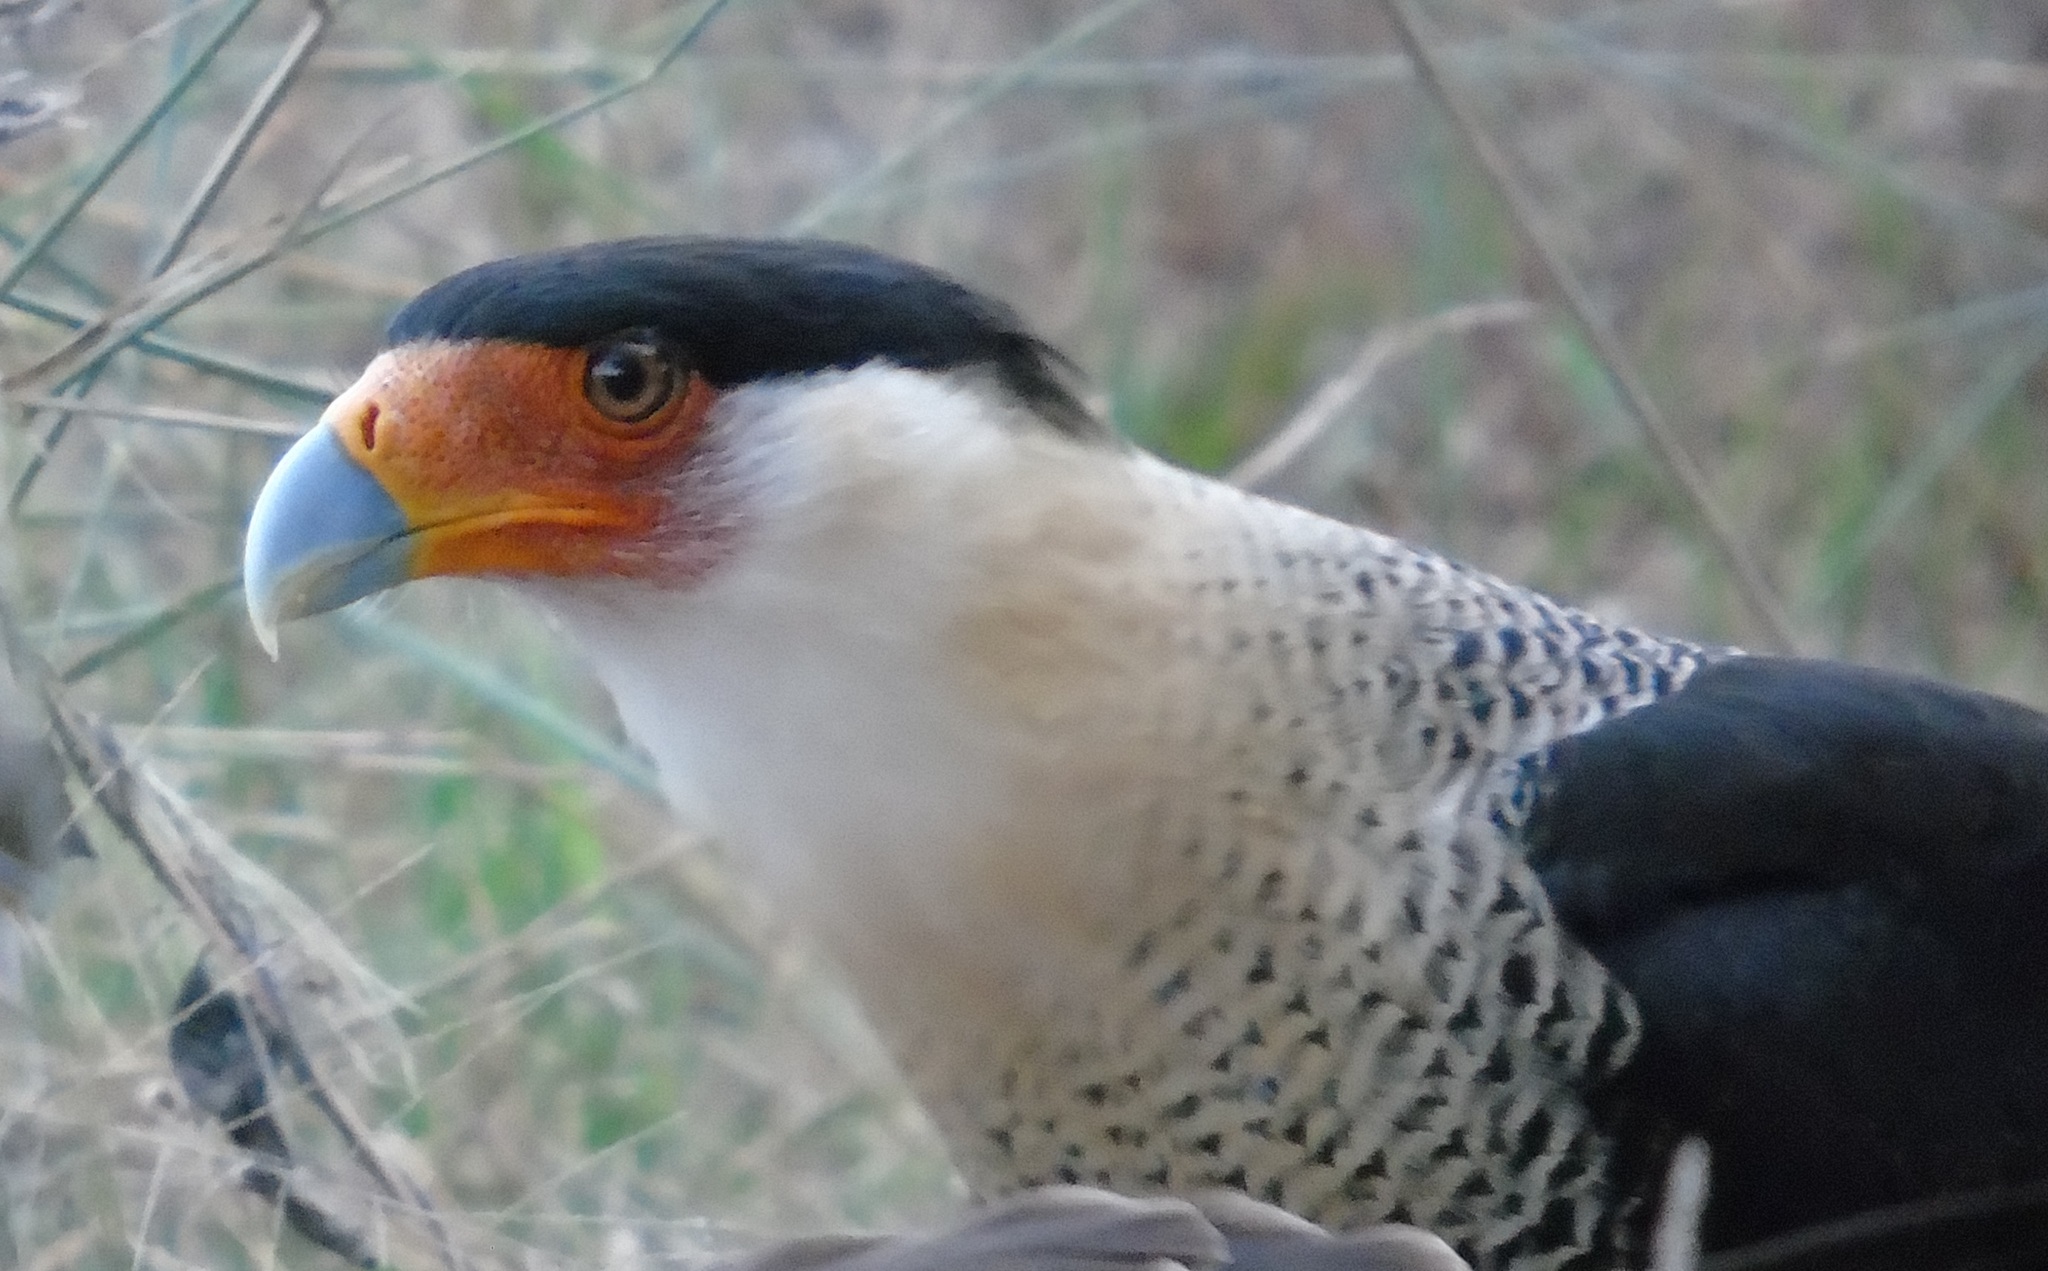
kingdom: Animalia
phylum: Chordata
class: Aves
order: Falconiformes
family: Falconidae
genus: Caracara
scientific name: Caracara plancus
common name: Southern caracara
